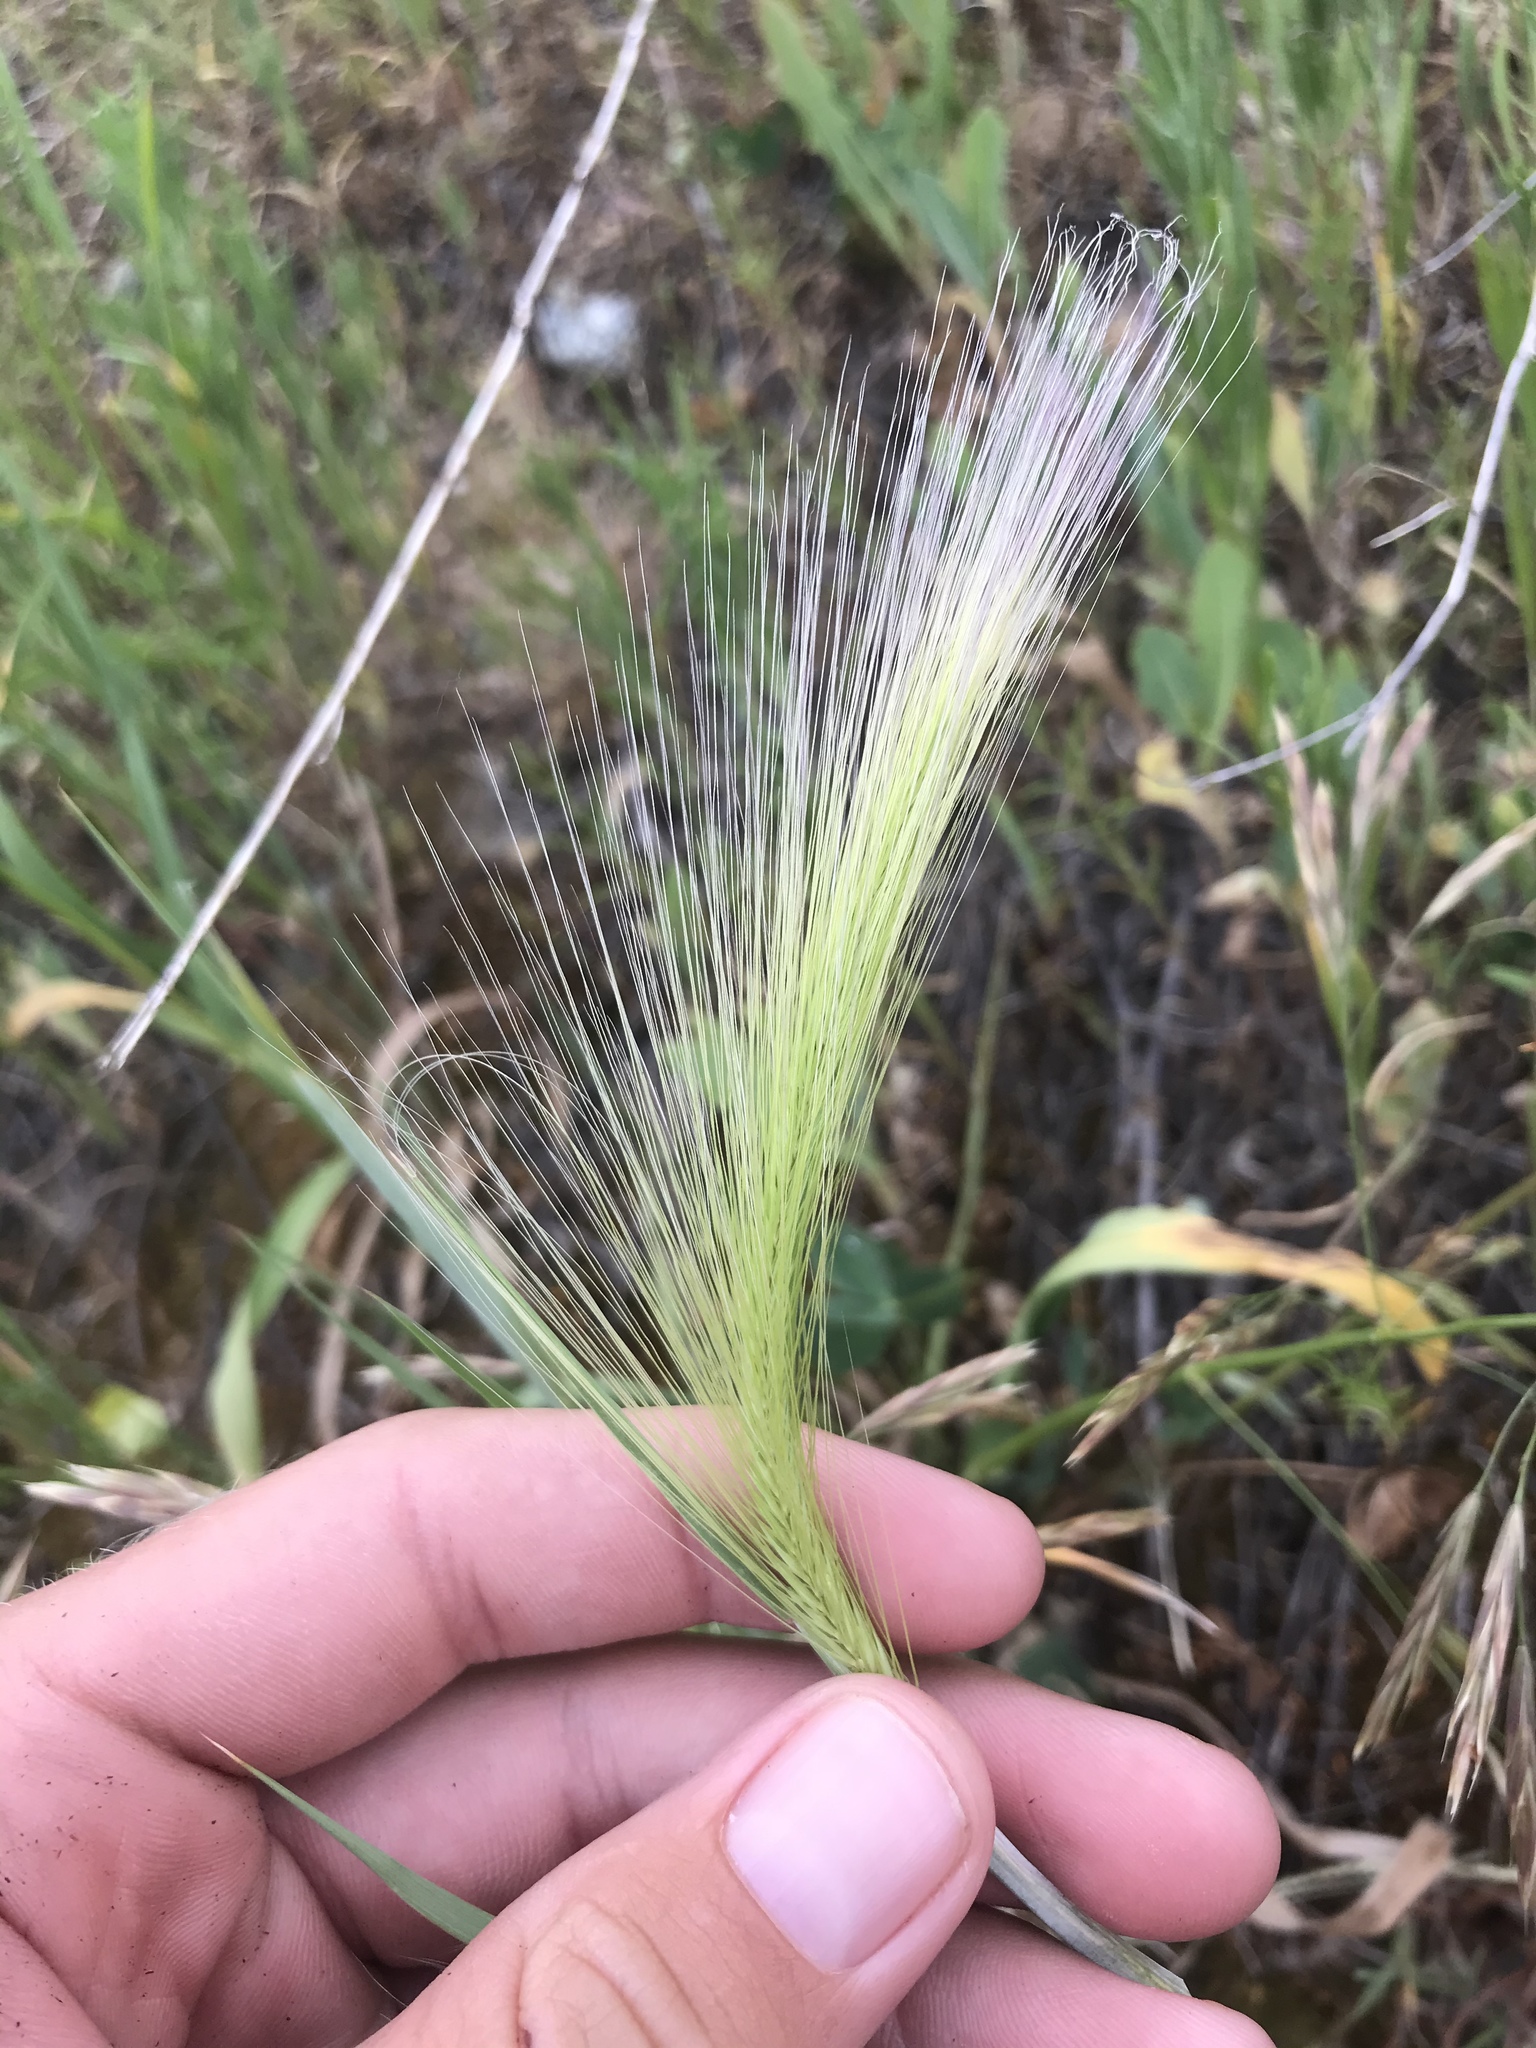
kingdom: Plantae
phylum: Tracheophyta
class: Liliopsida
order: Poales
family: Poaceae
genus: Hordeum
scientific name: Hordeum jubatum
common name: Foxtail barley
